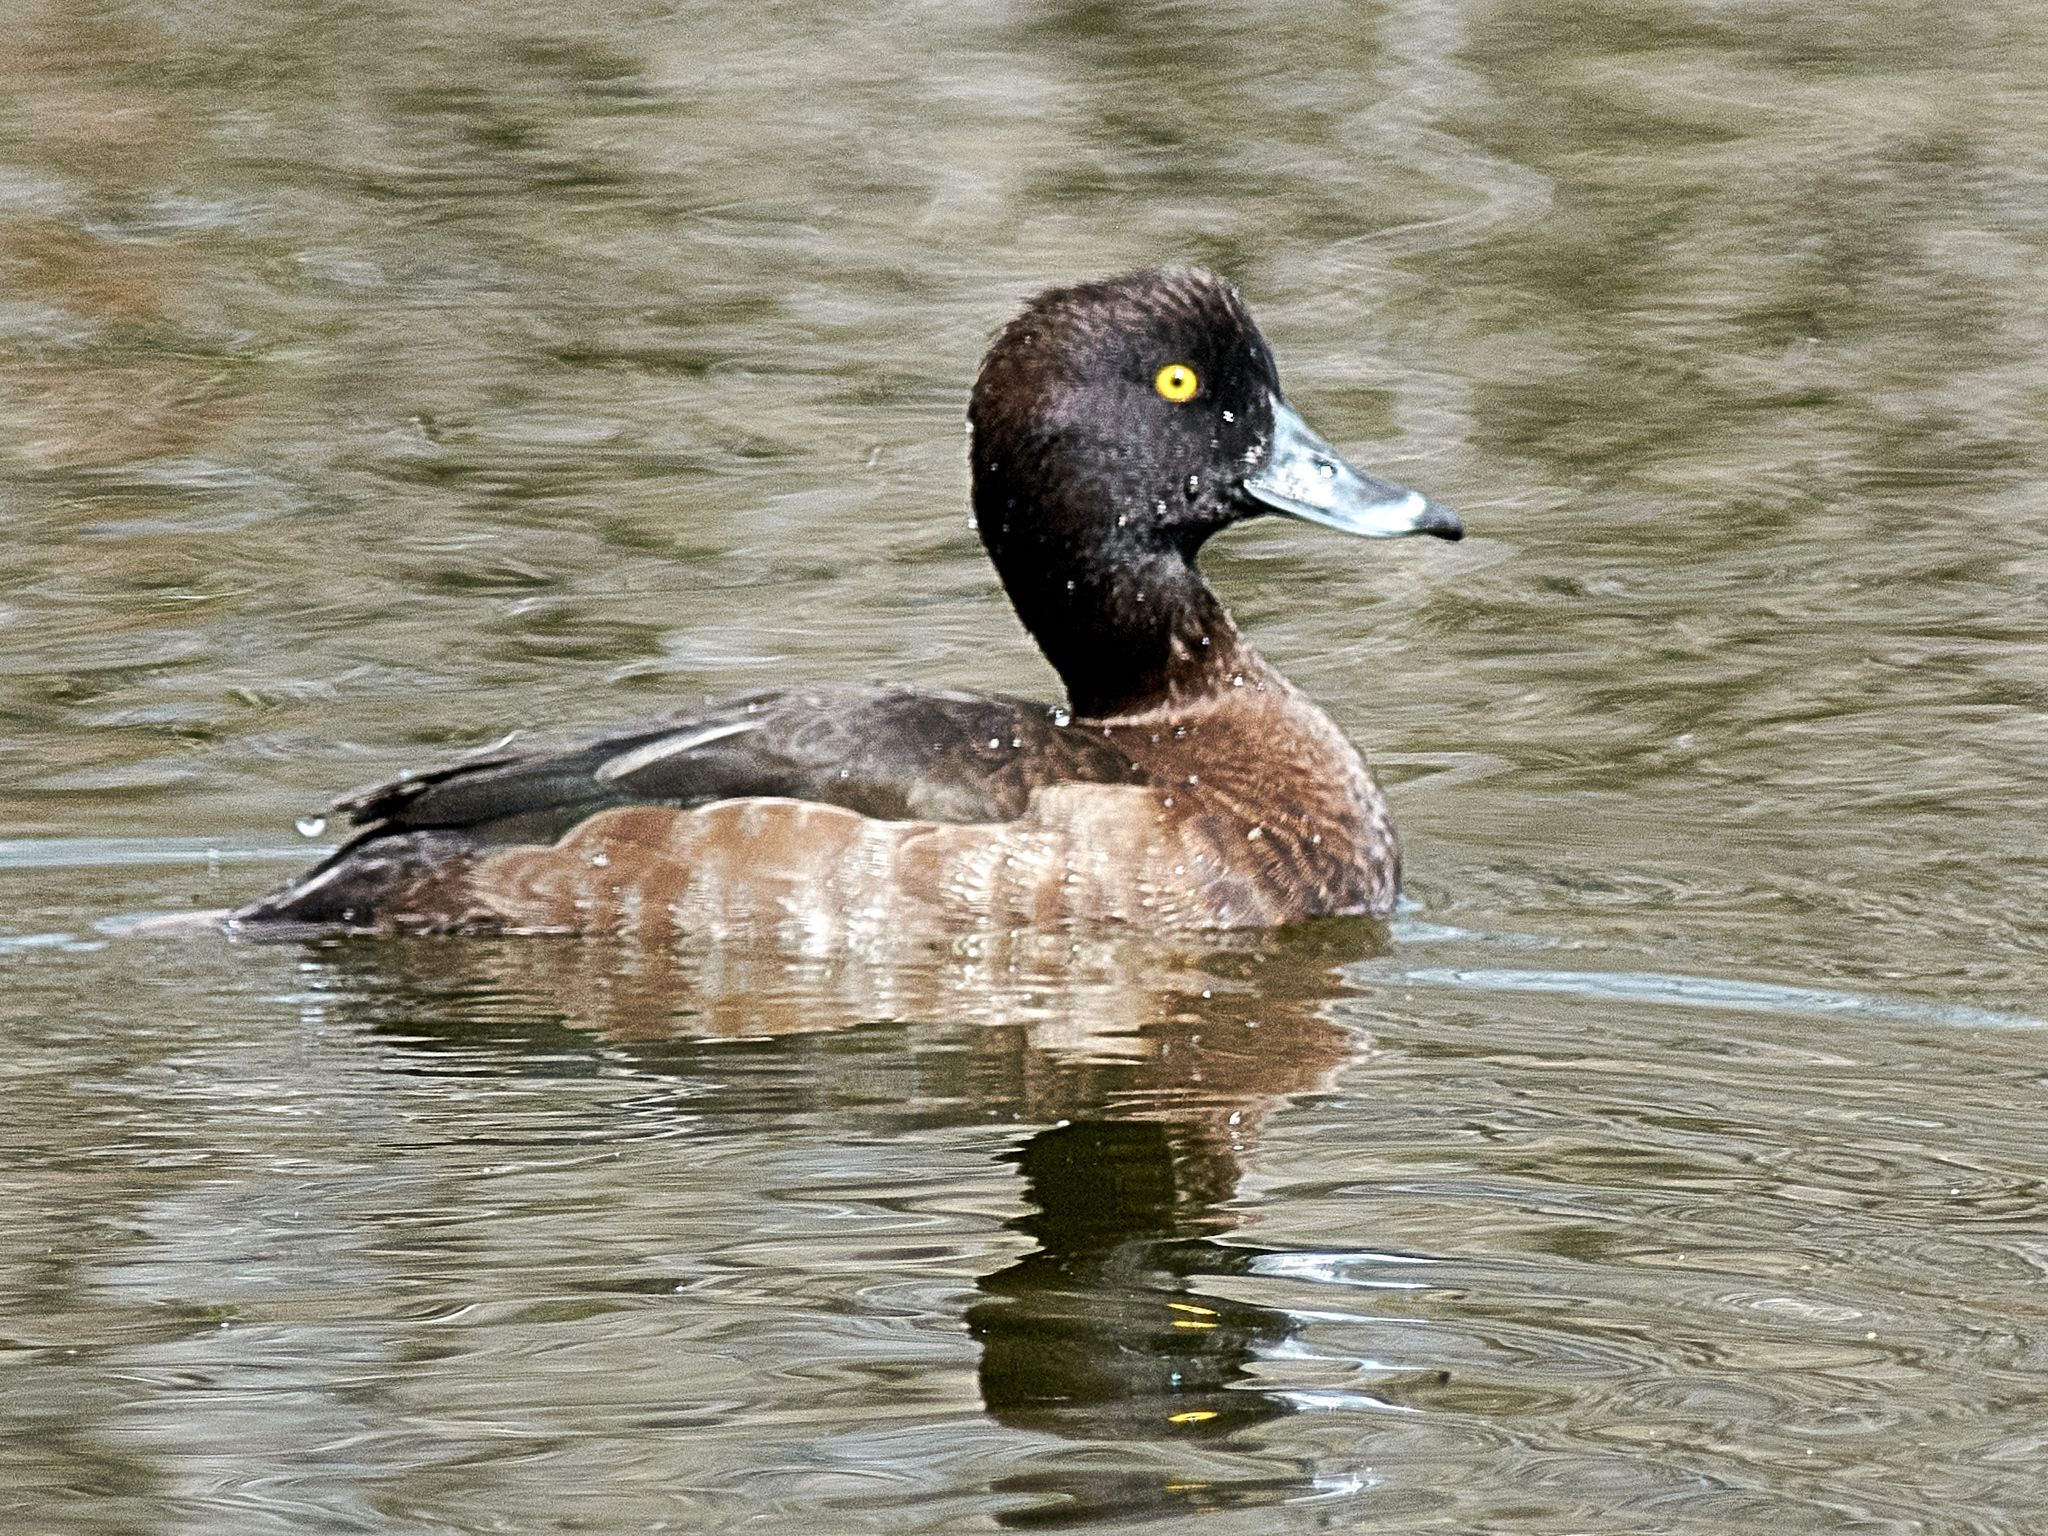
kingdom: Animalia
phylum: Chordata
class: Aves
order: Anseriformes
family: Anatidae
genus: Aythya
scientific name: Aythya fuligula
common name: Tufted duck
